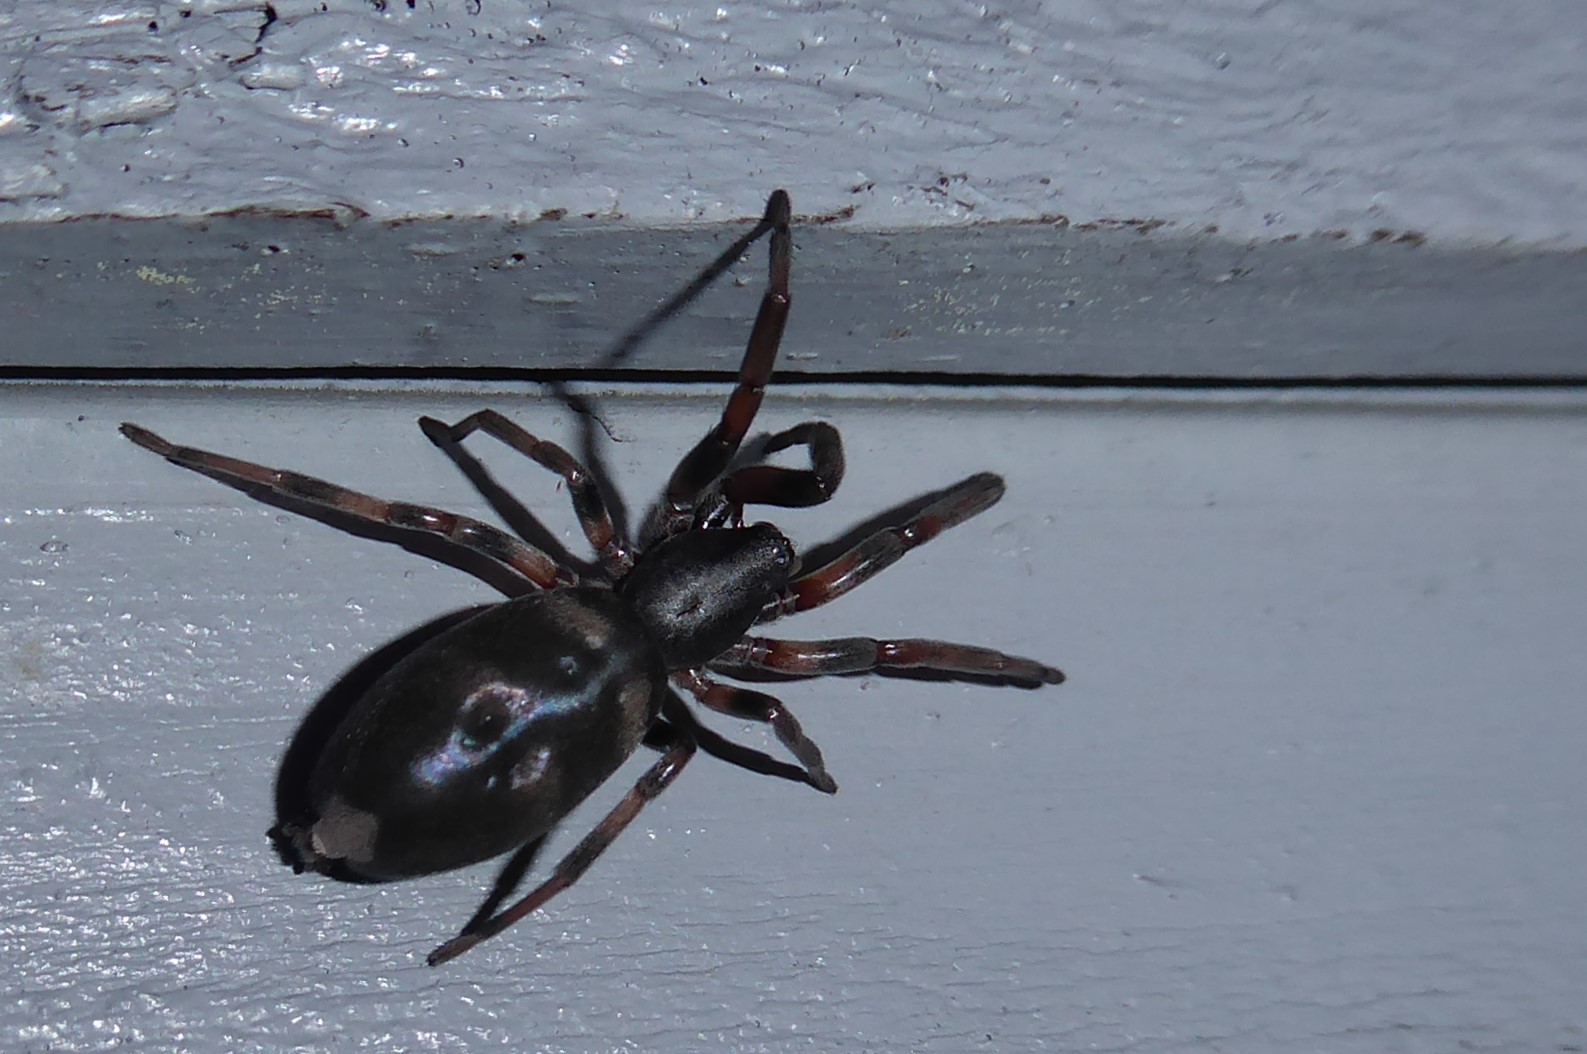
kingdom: Animalia
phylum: Arthropoda
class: Arachnida
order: Araneae
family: Lamponidae
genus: Lampona
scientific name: Lampona cylindrata
